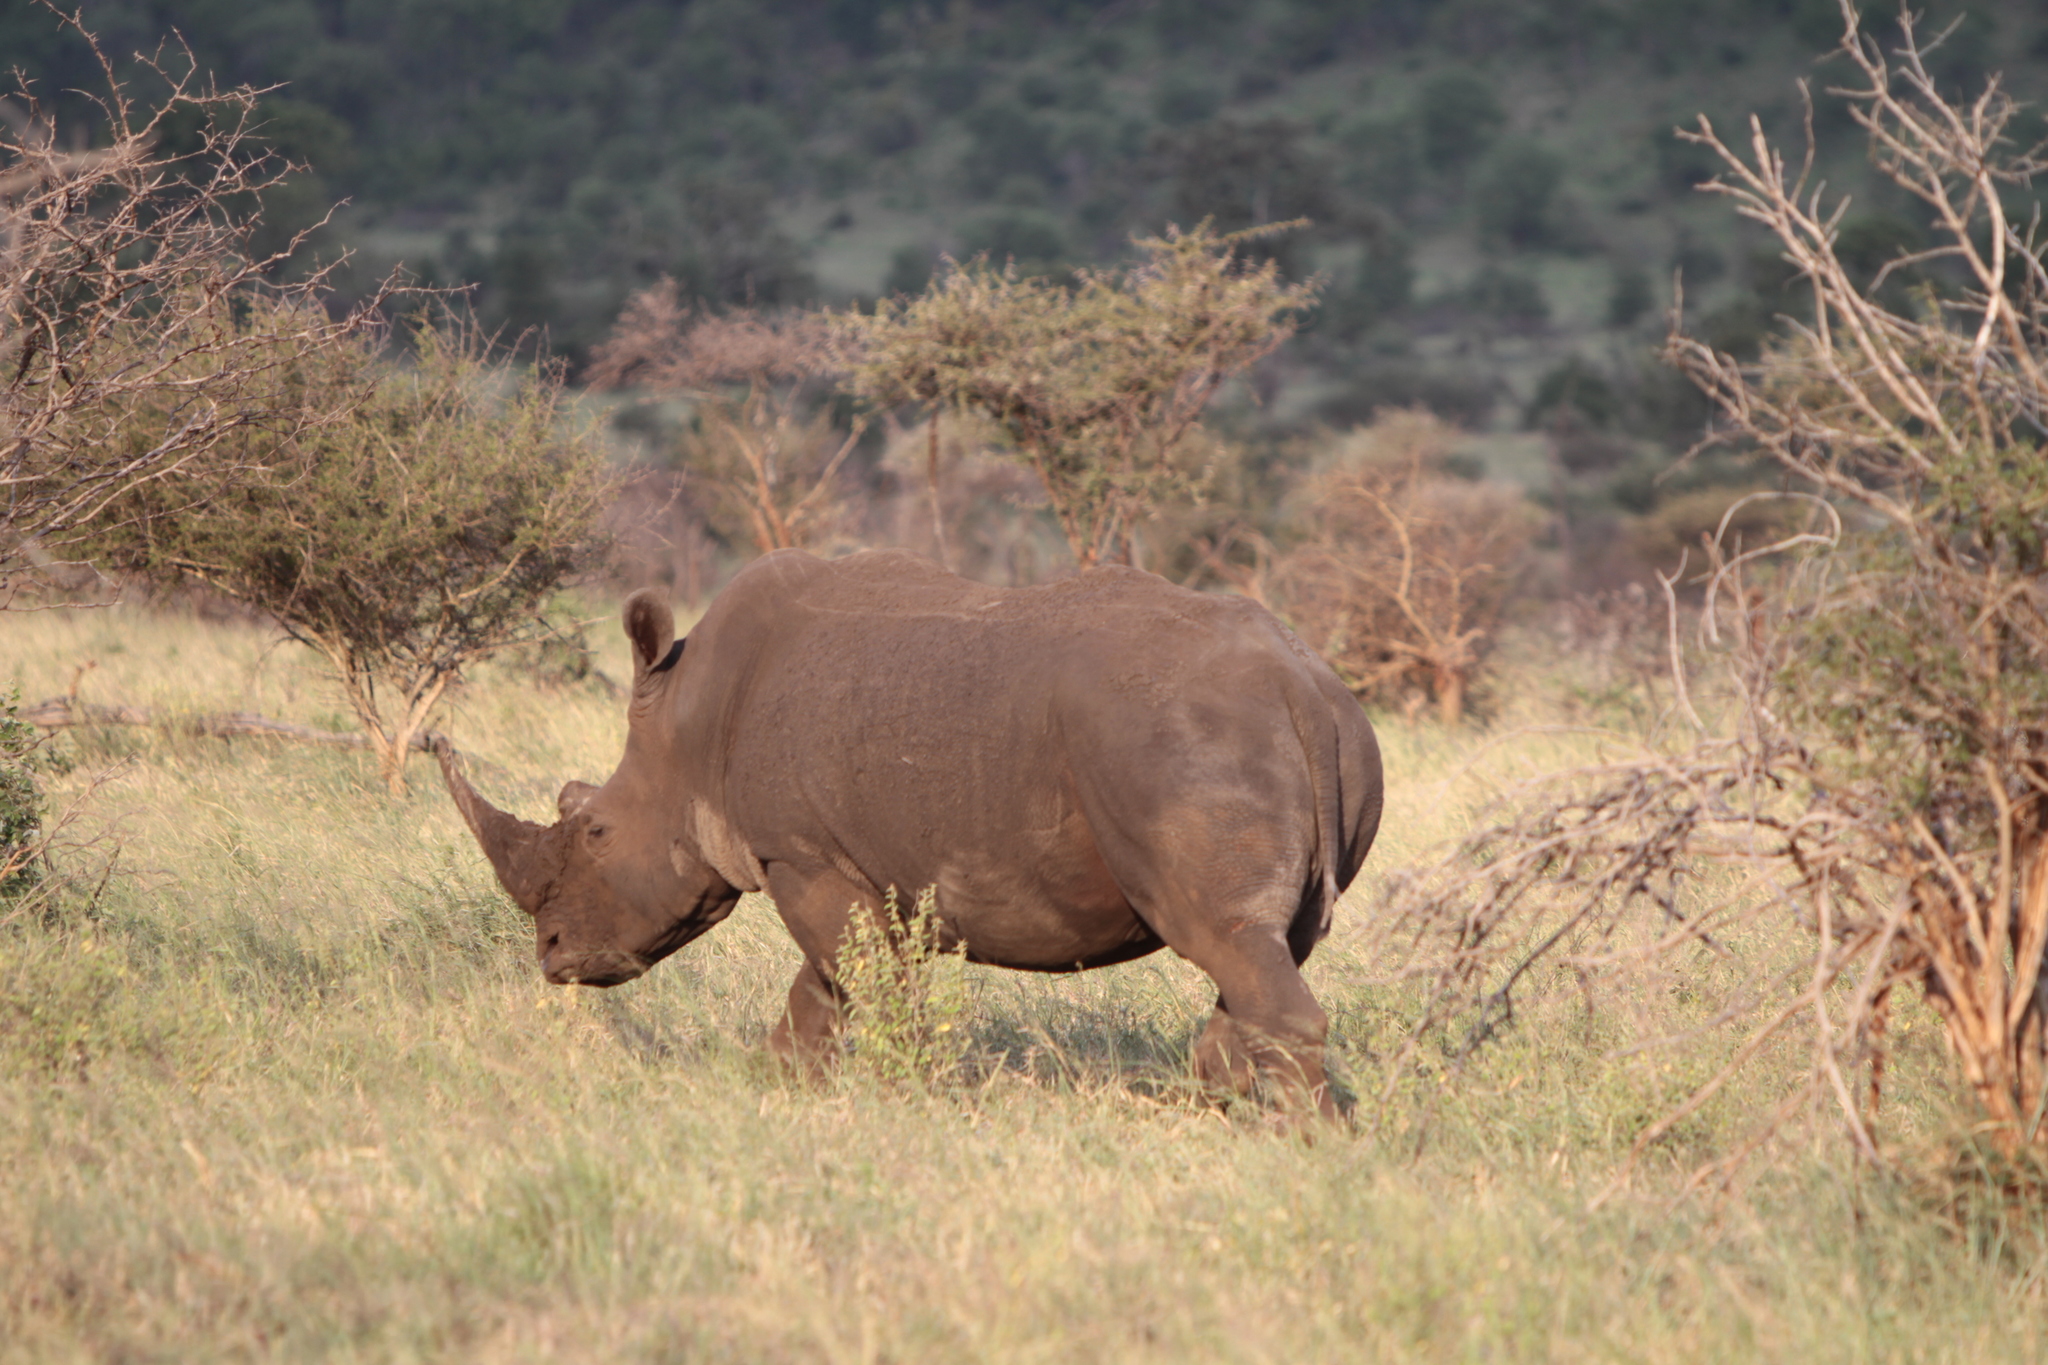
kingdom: Animalia
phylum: Chordata
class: Mammalia
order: Perissodactyla
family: Rhinocerotidae
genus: Ceratotherium
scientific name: Ceratotherium simum
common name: White rhinoceros
